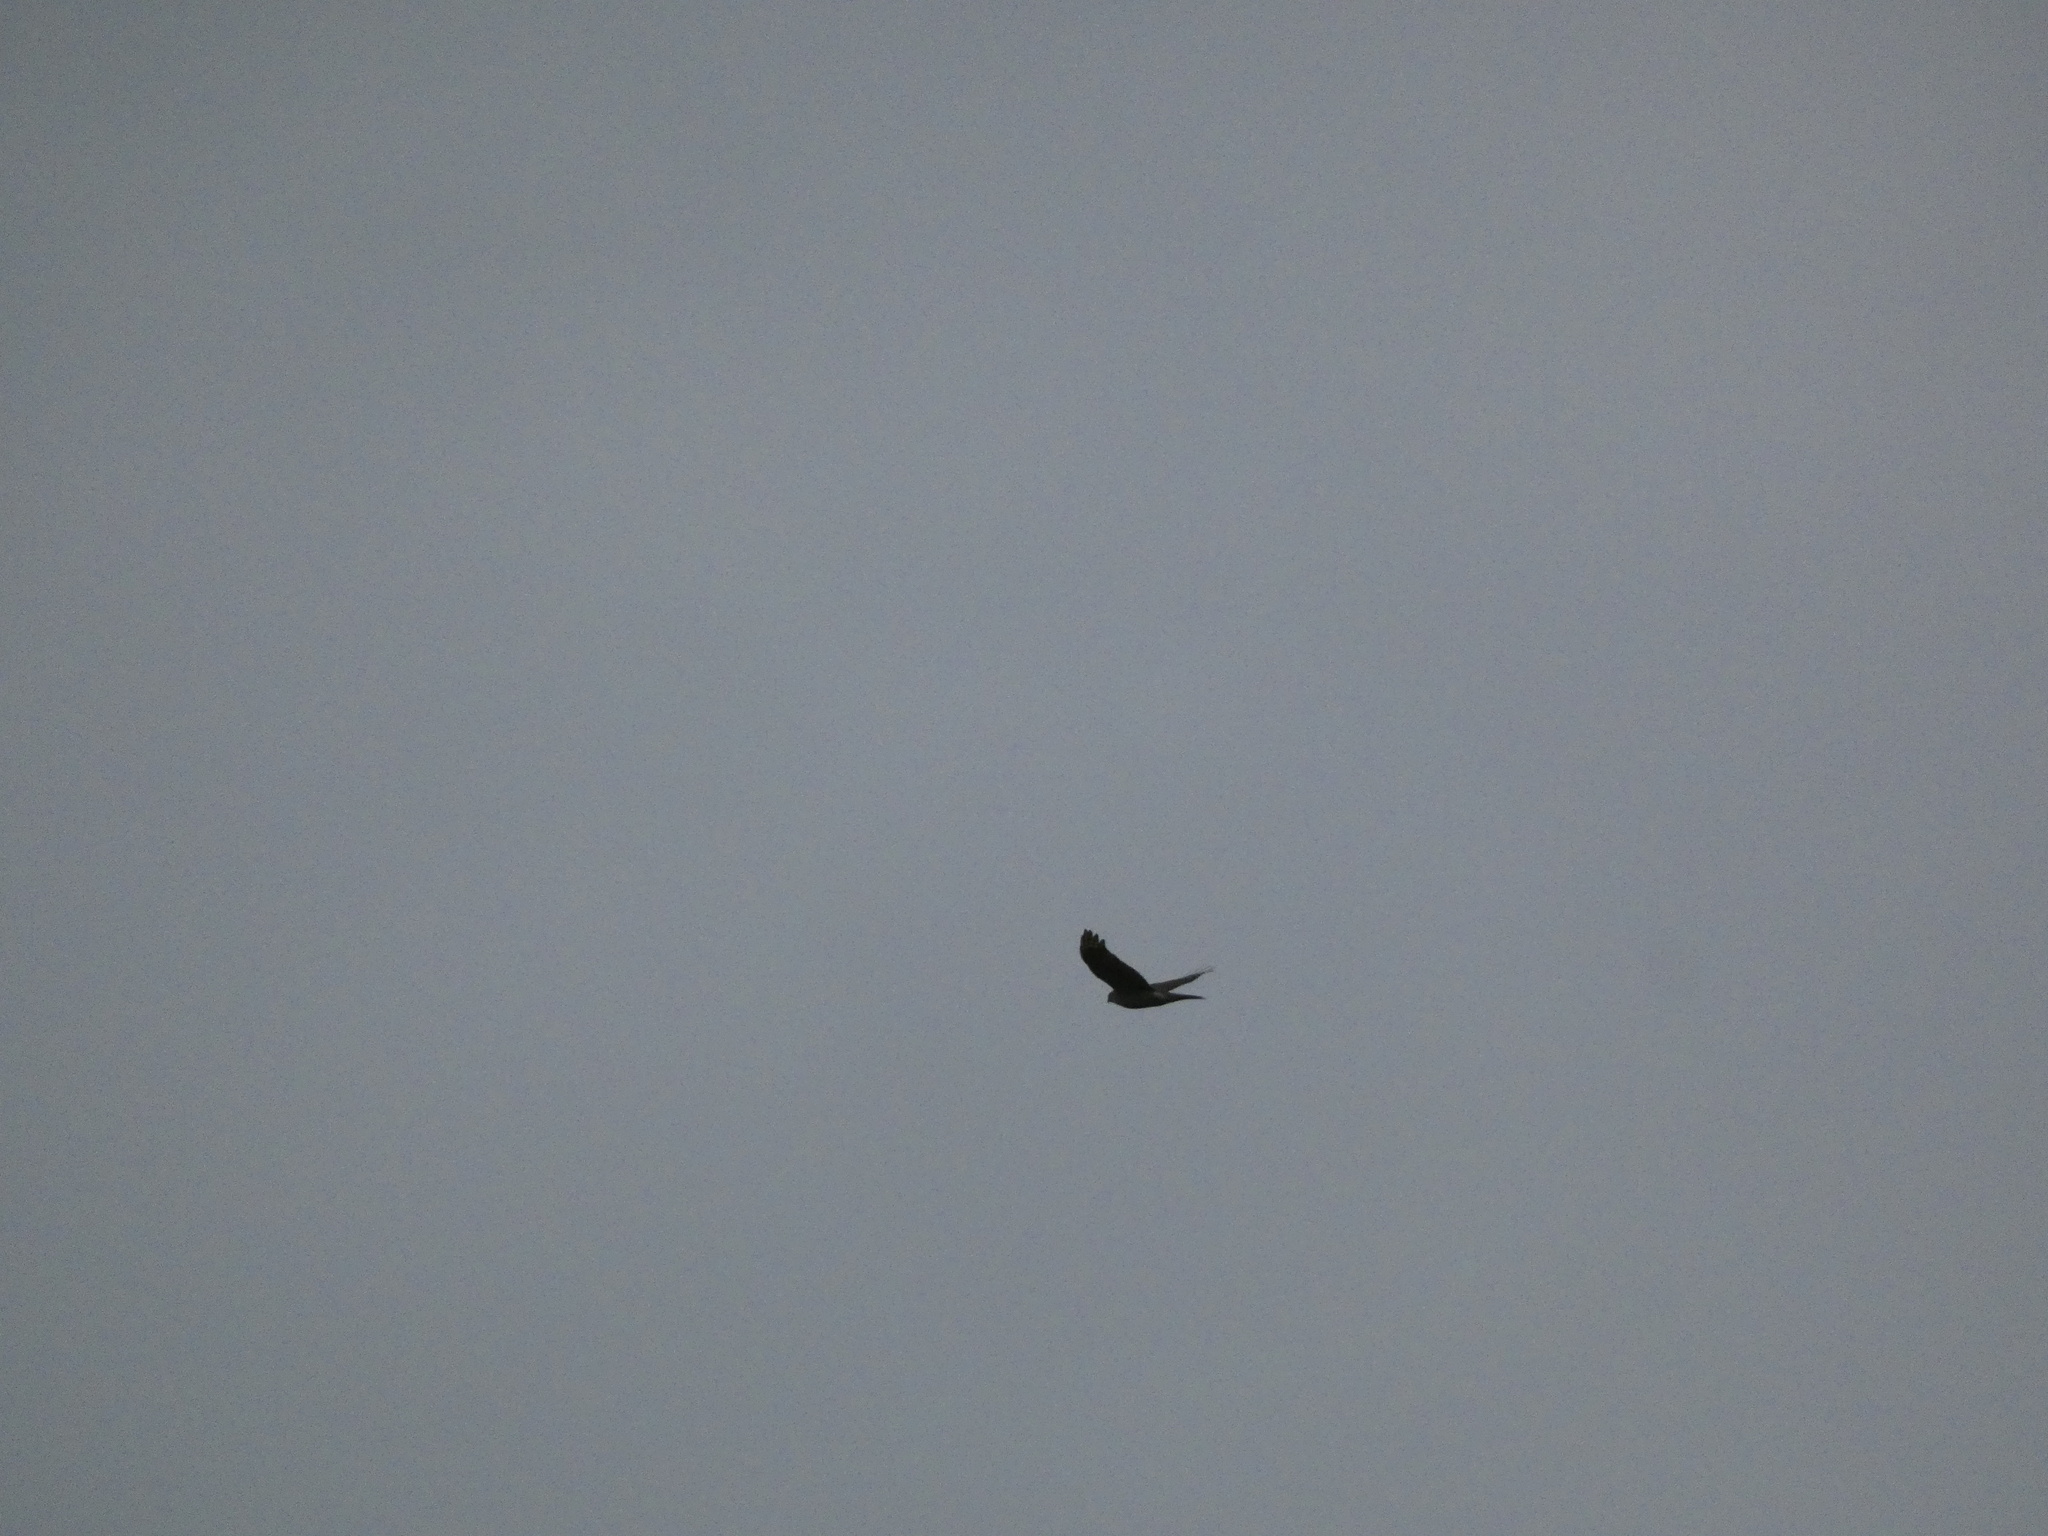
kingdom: Animalia
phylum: Chordata
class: Aves
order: Accipitriformes
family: Accipitridae
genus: Accipiter
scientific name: Accipiter nisus
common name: Eurasian sparrowhawk
